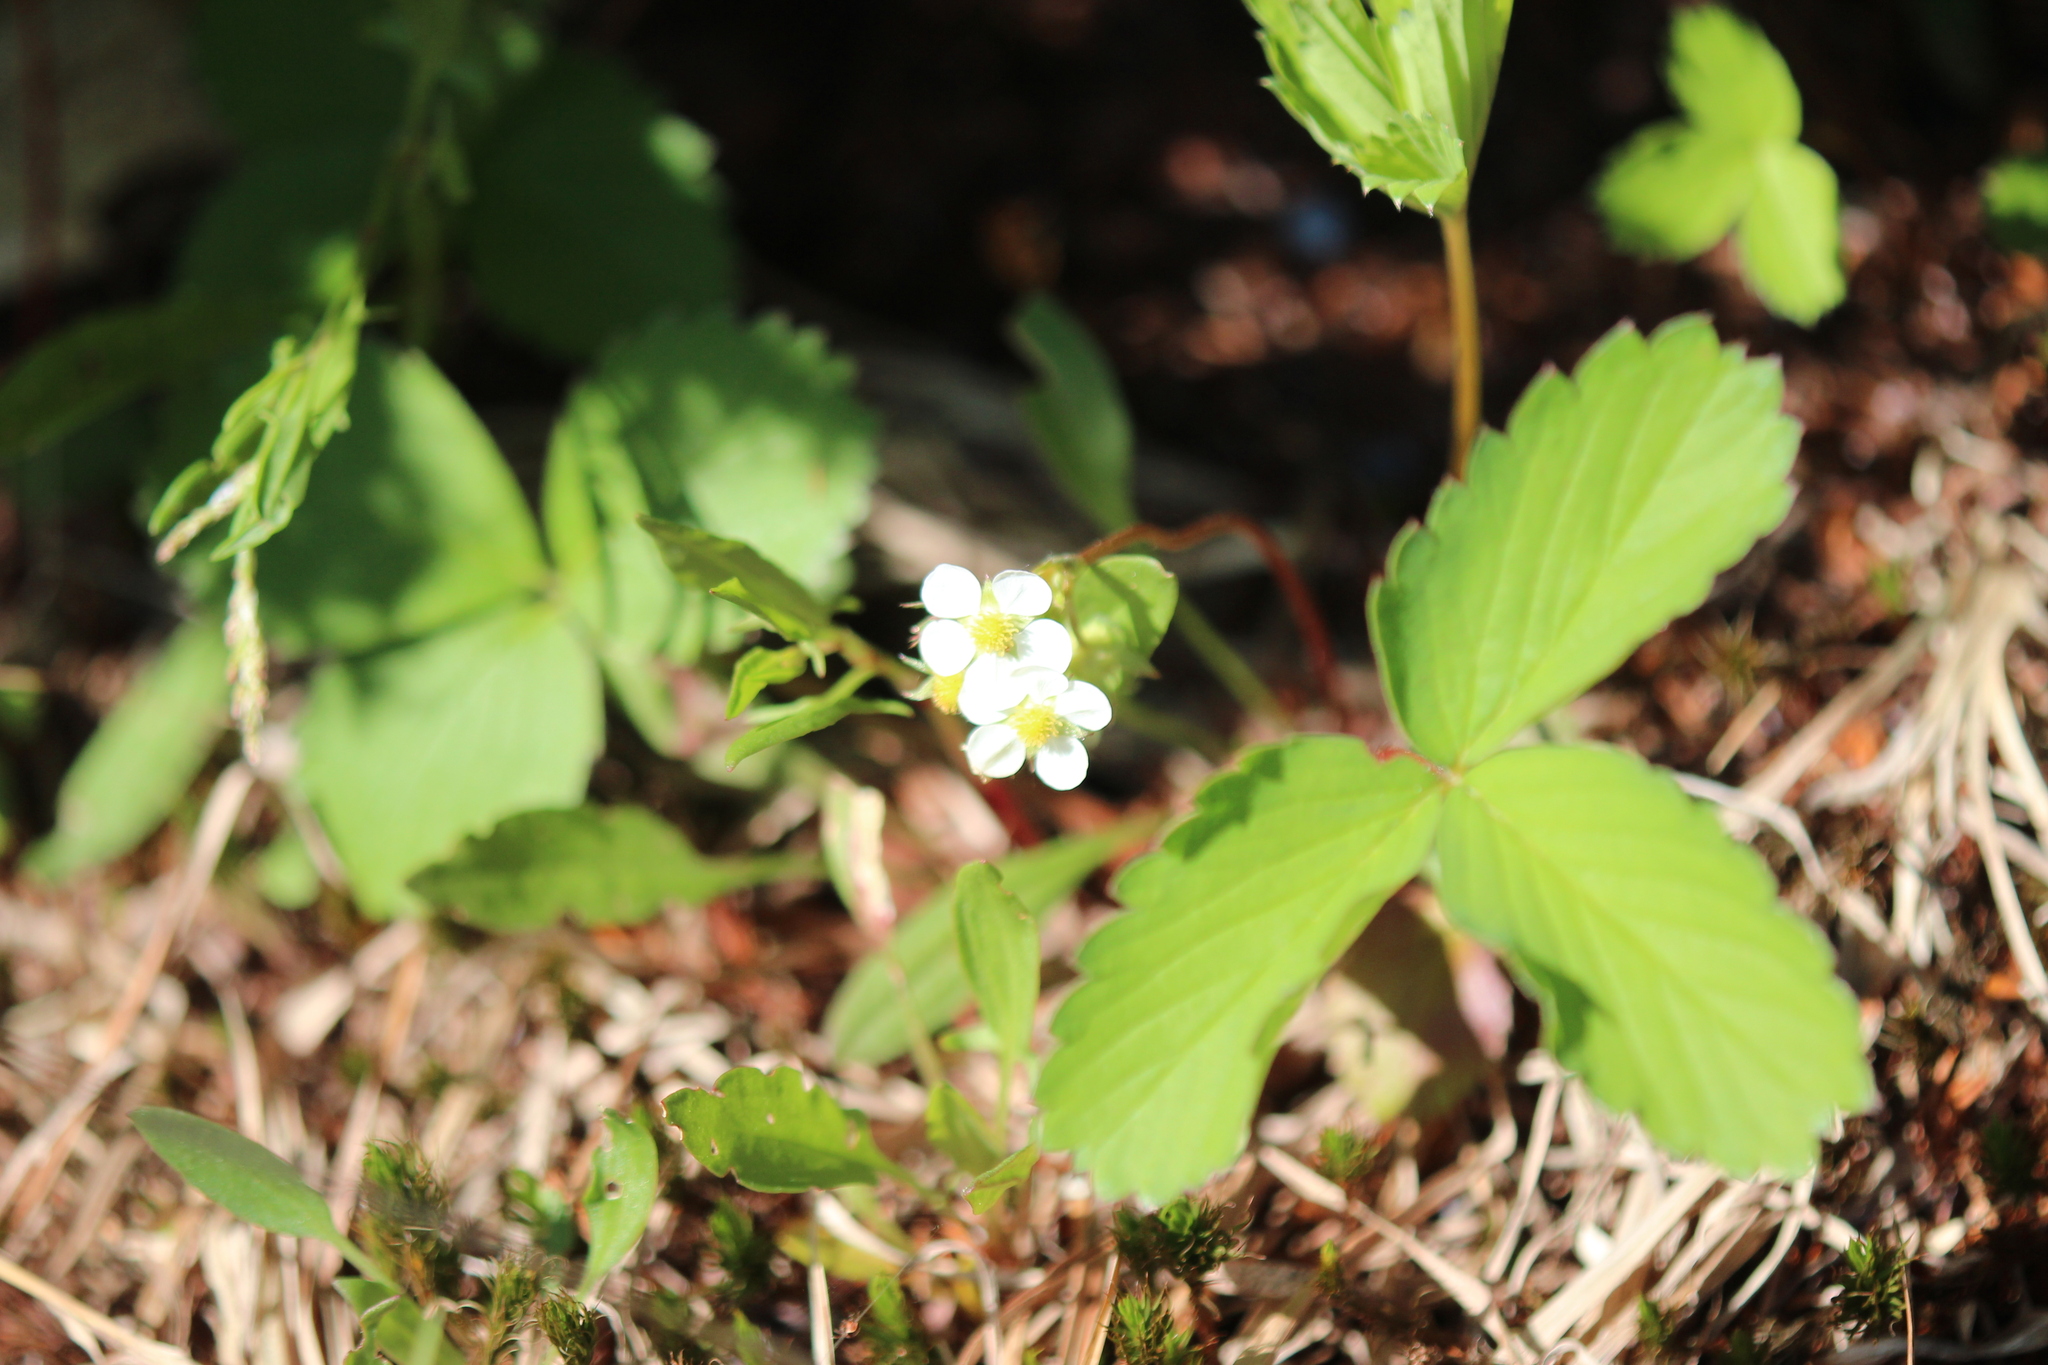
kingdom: Plantae
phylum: Tracheophyta
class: Magnoliopsida
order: Rosales
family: Rosaceae
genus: Fragaria
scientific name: Fragaria virginiana
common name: Thickleaved wild strawberry
